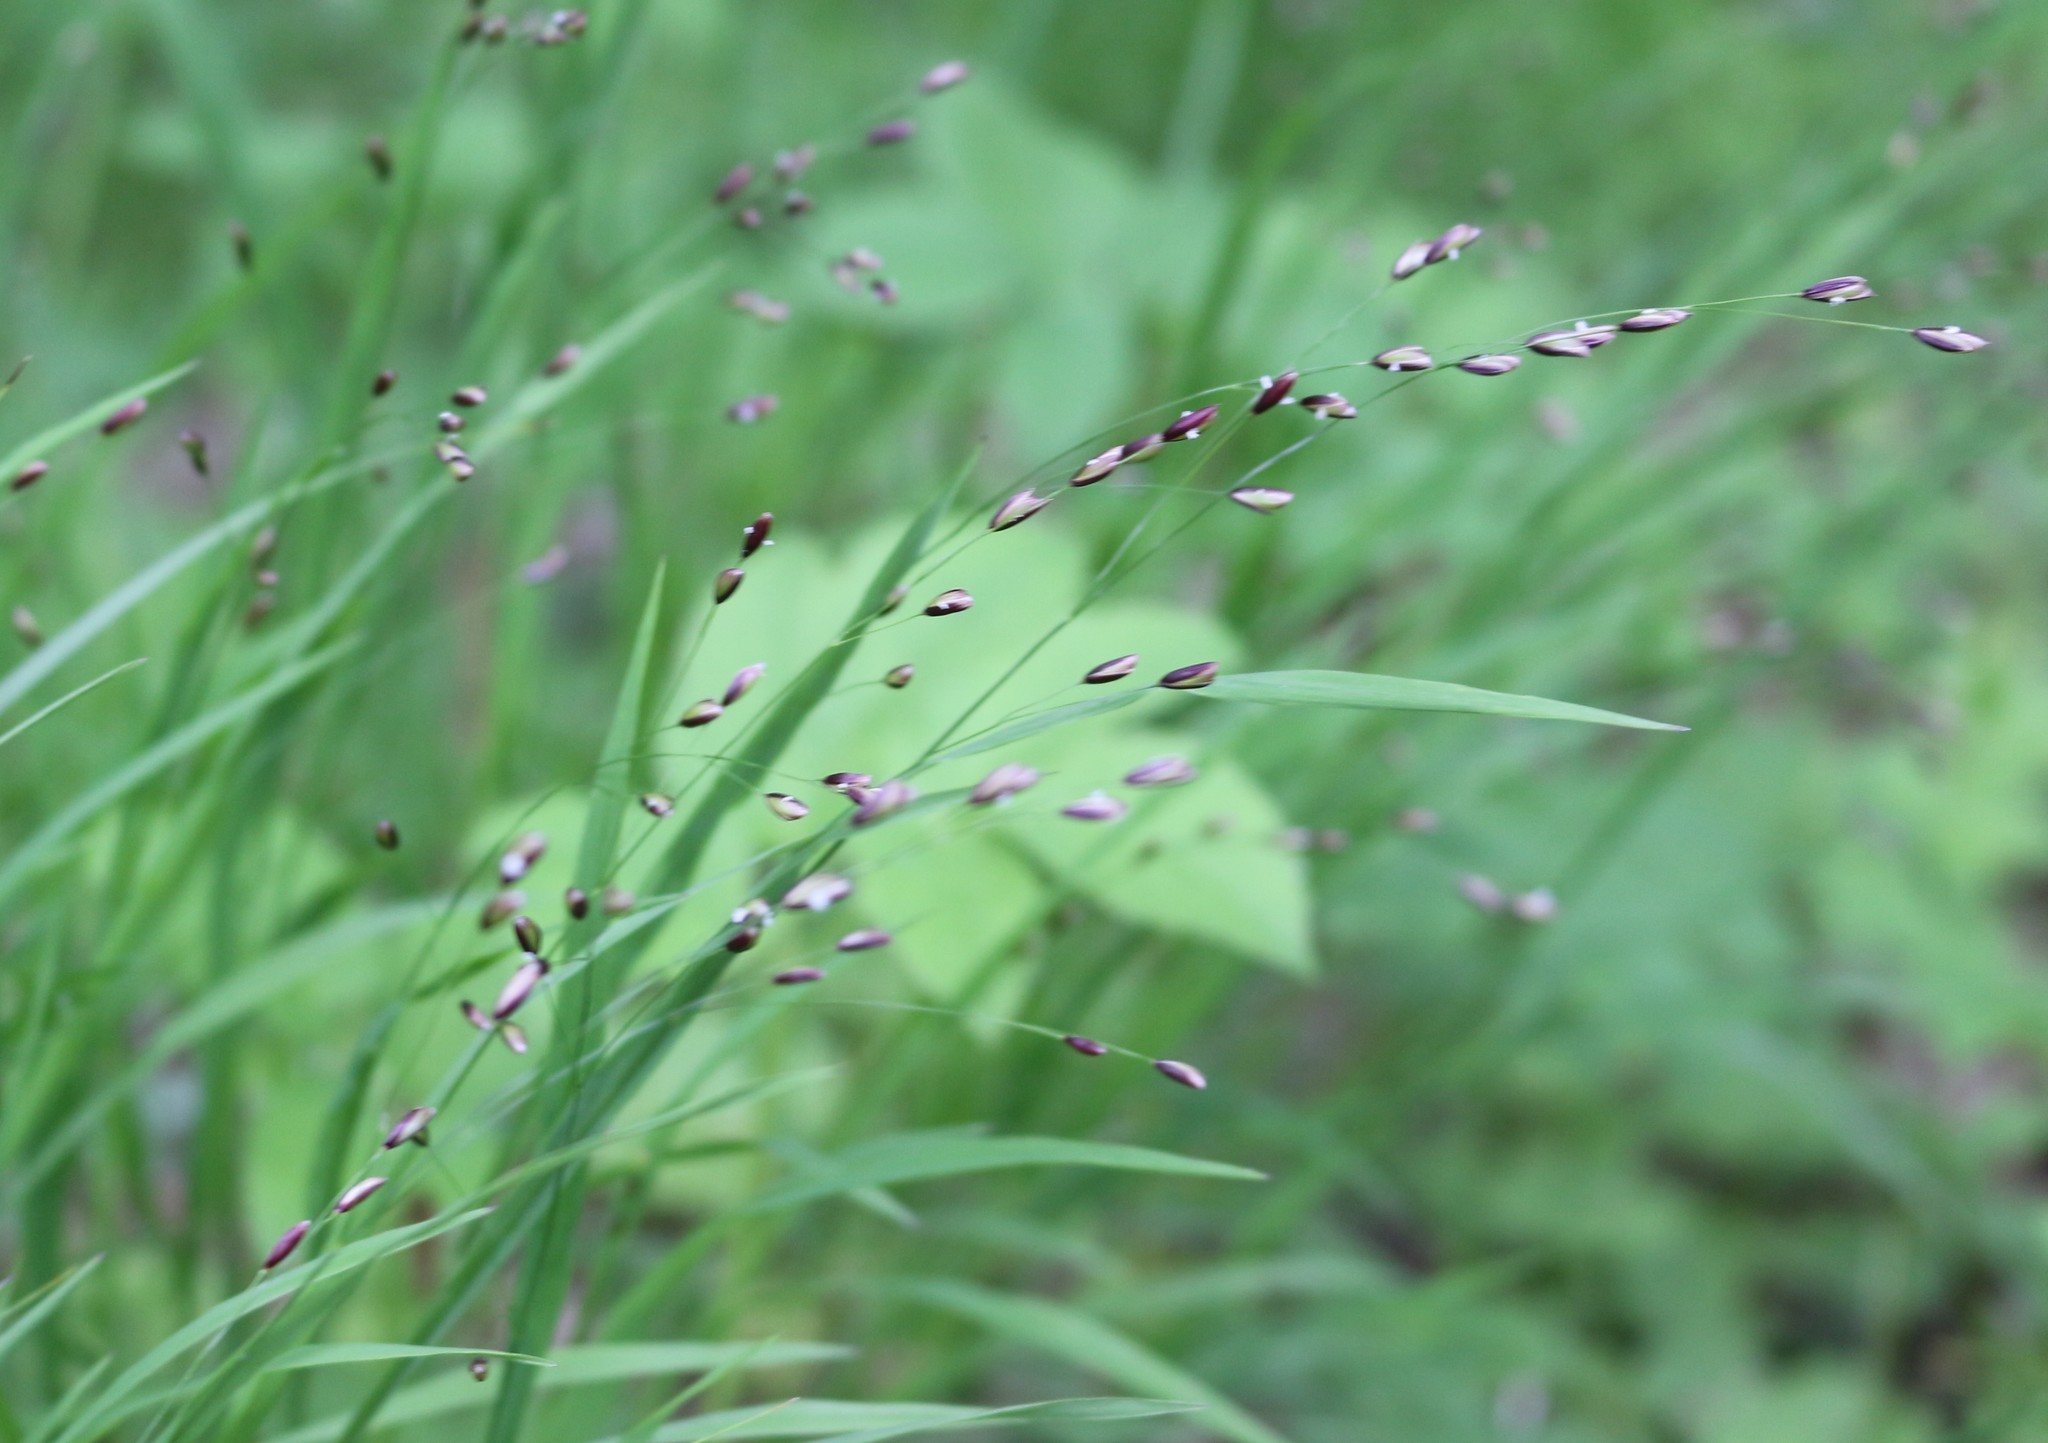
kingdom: Plantae
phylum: Tracheophyta
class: Liliopsida
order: Poales
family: Poaceae
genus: Melica
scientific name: Melica uniflora
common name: Wood melick
